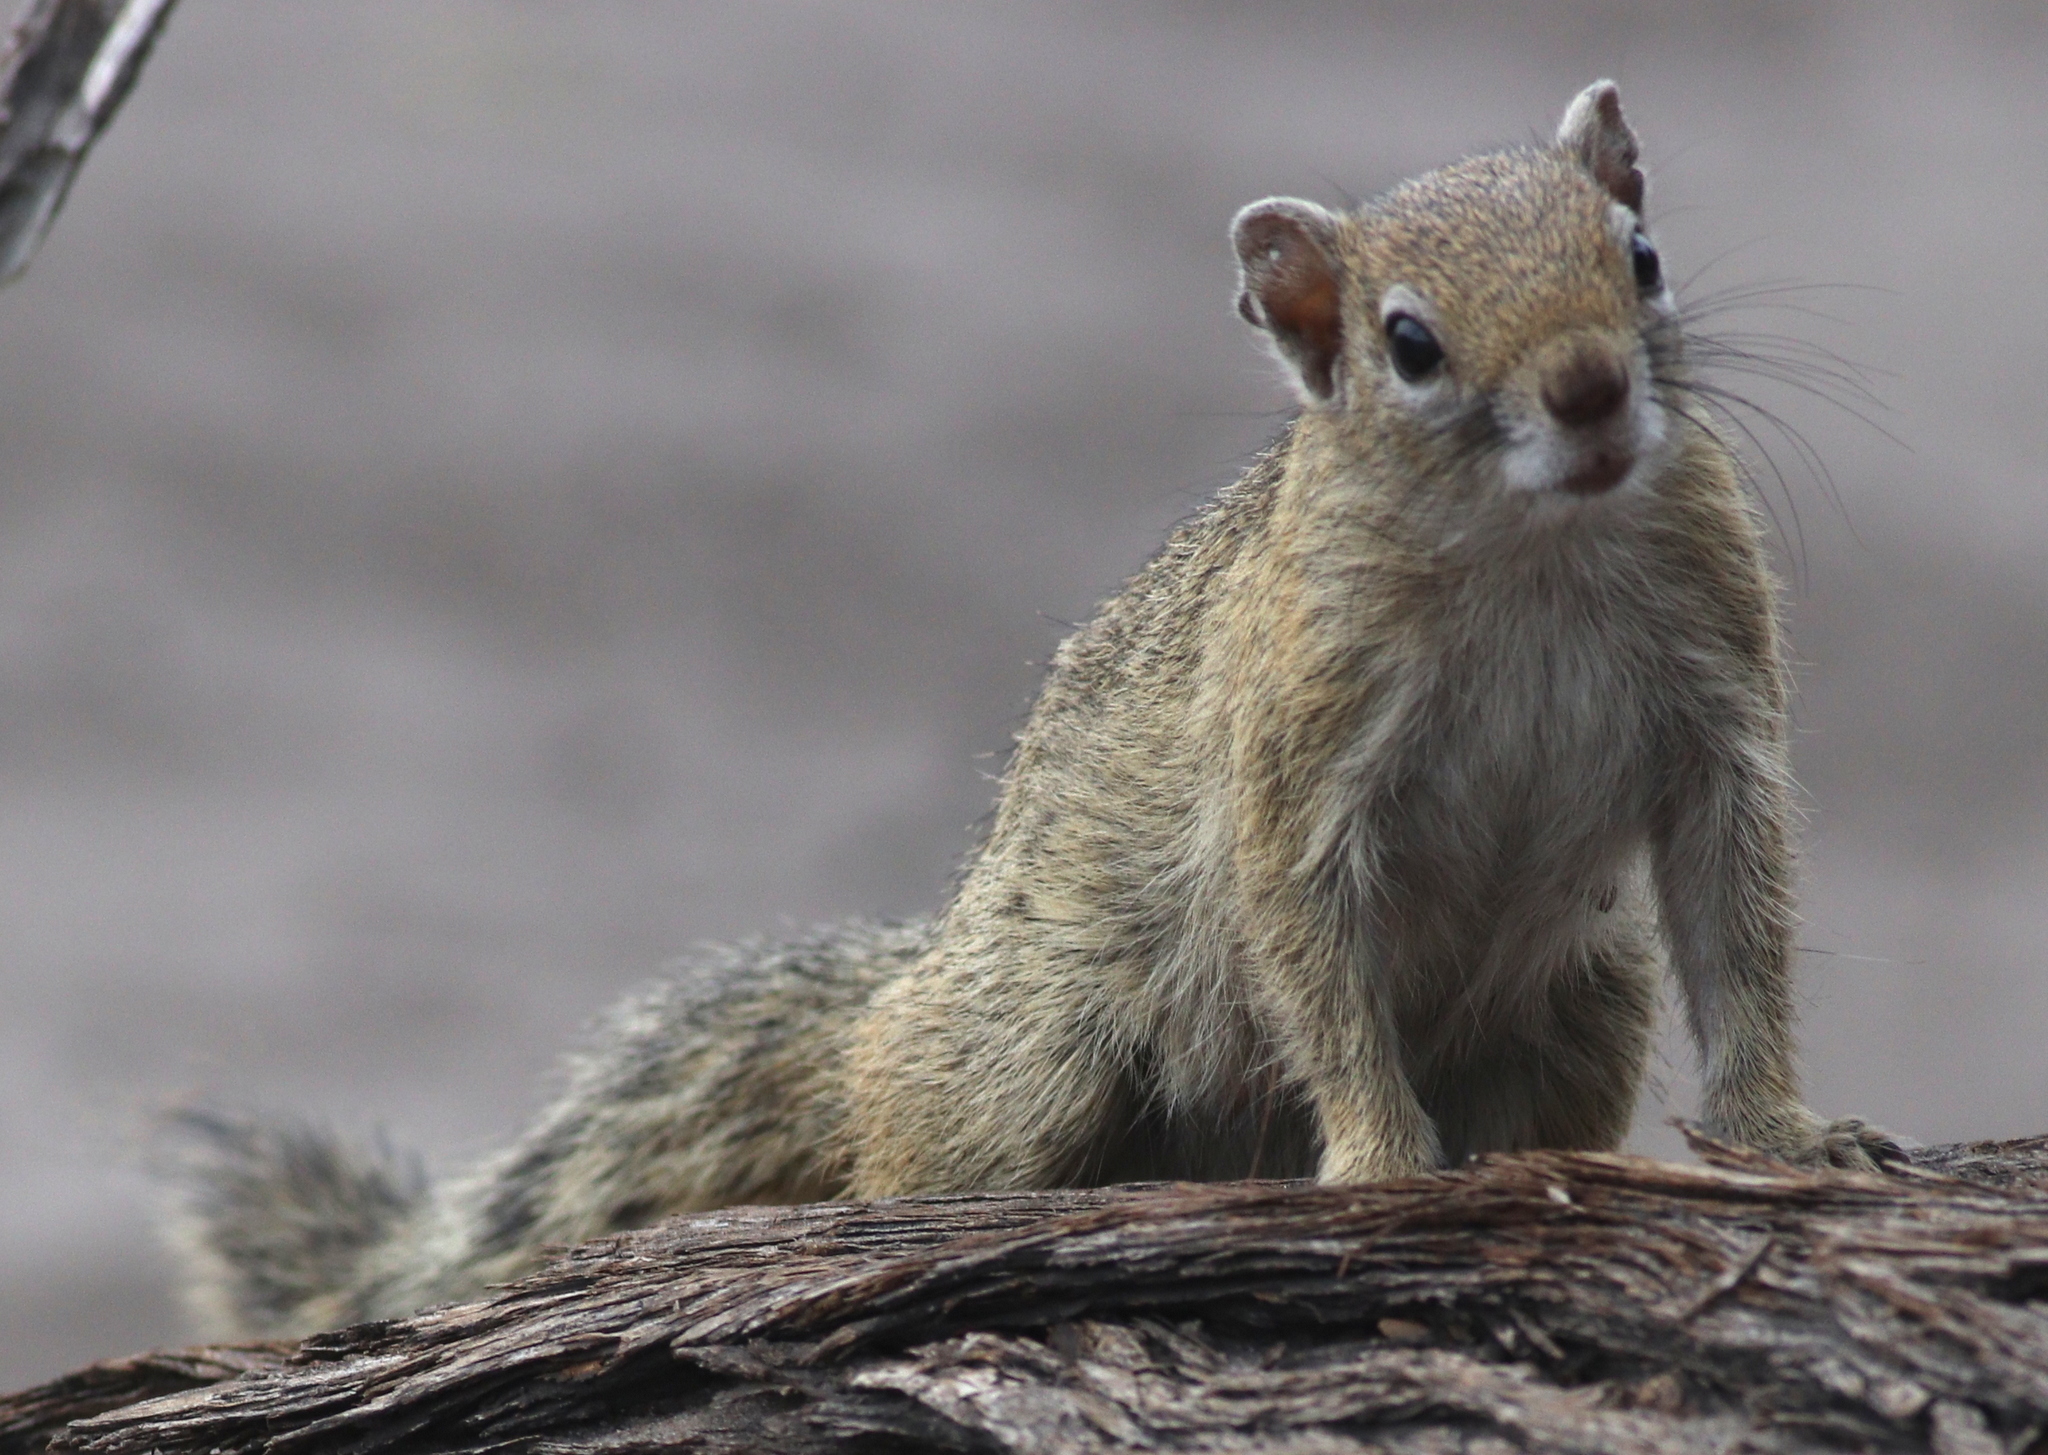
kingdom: Animalia
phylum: Chordata
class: Mammalia
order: Rodentia
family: Sciuridae
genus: Paraxerus
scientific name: Paraxerus cepapi
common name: Smith's bush squirrel
